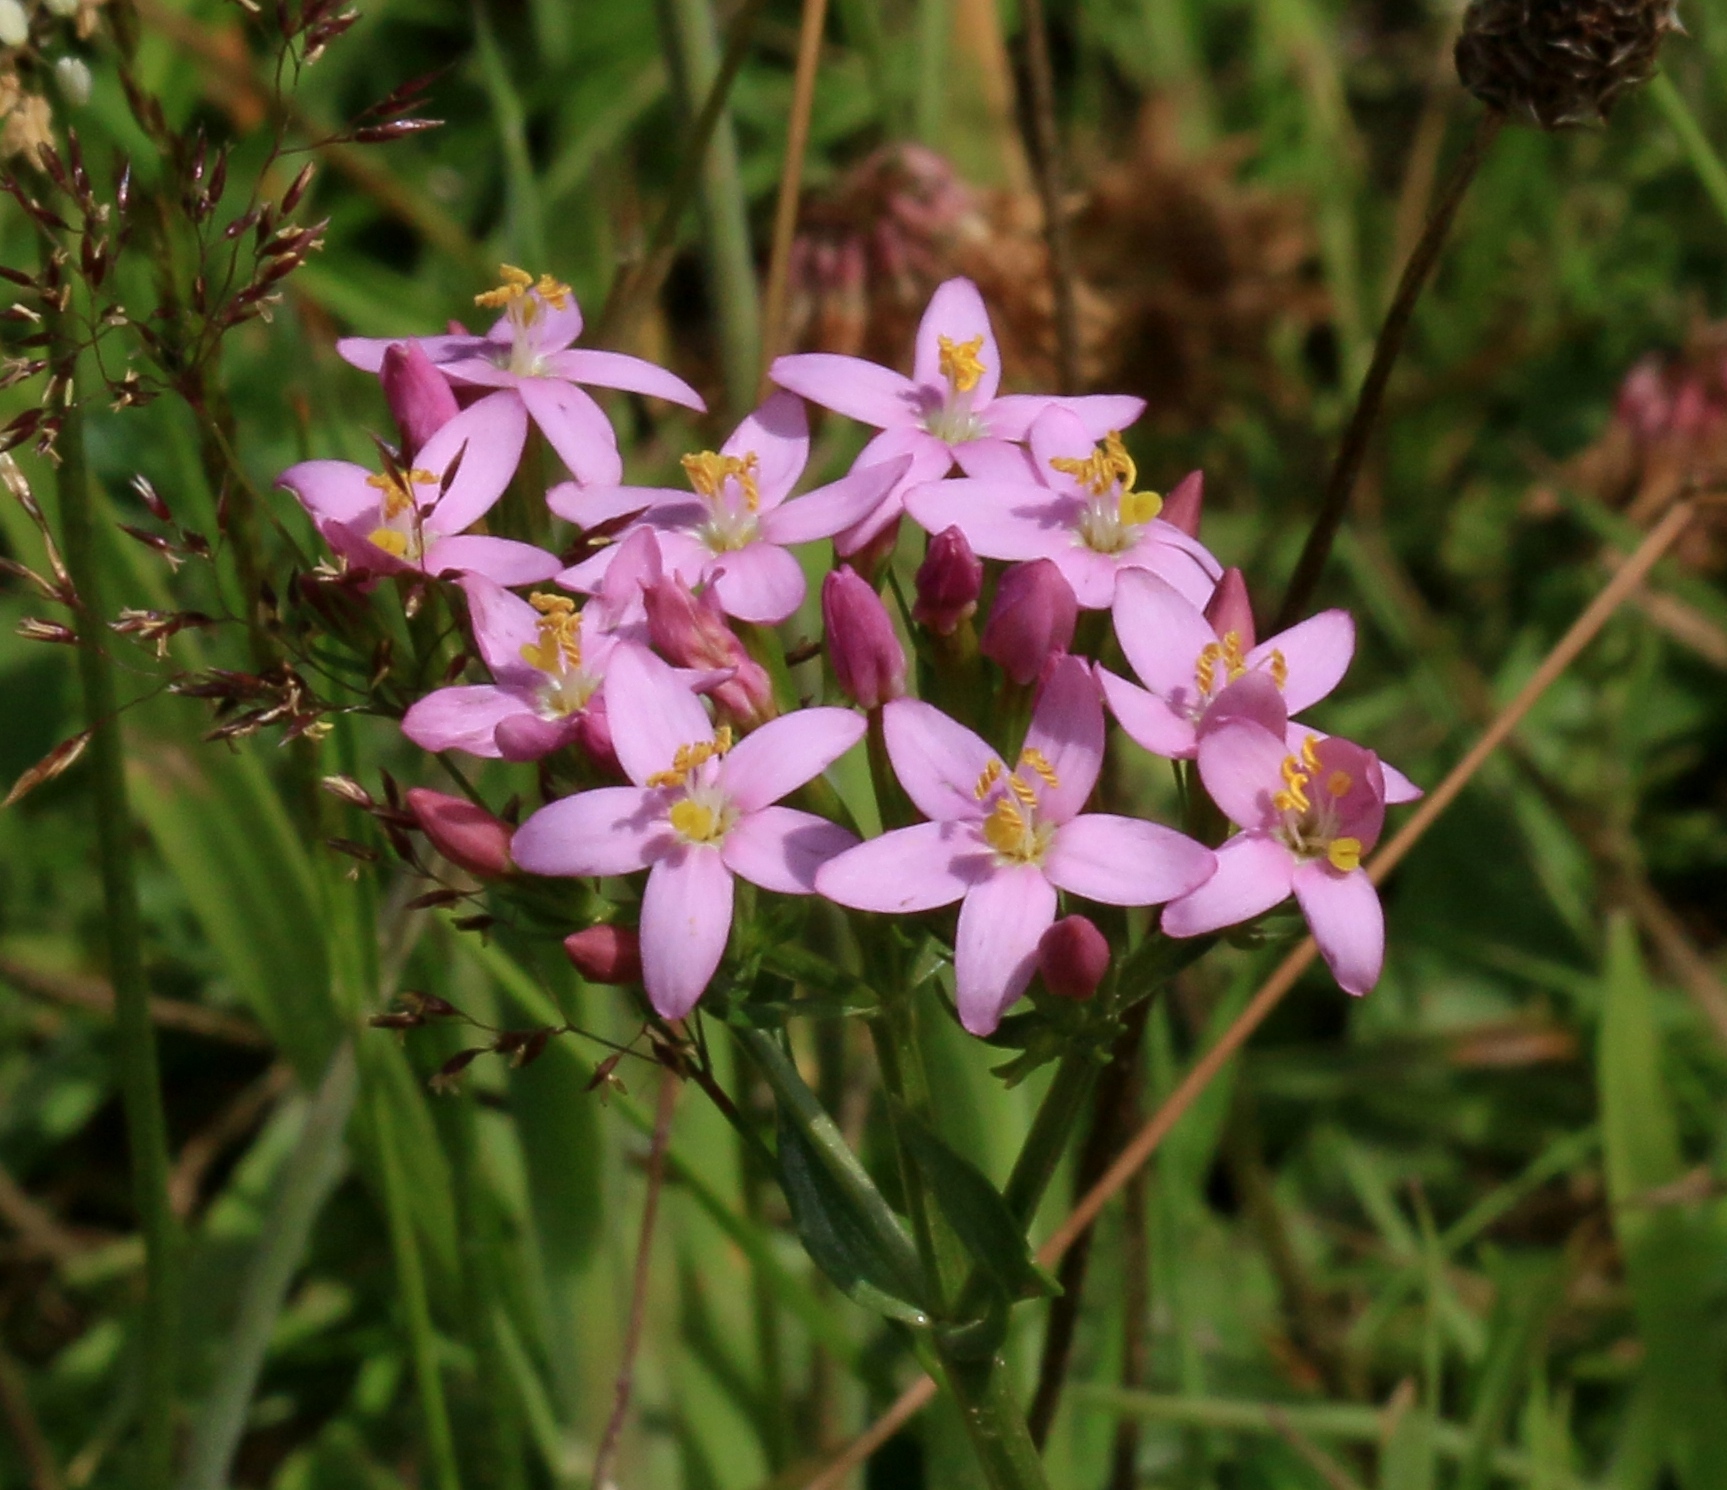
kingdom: Plantae
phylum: Tracheophyta
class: Magnoliopsida
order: Gentianales
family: Gentianaceae
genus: Centaurium
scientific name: Centaurium erythraea
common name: Common centaury
